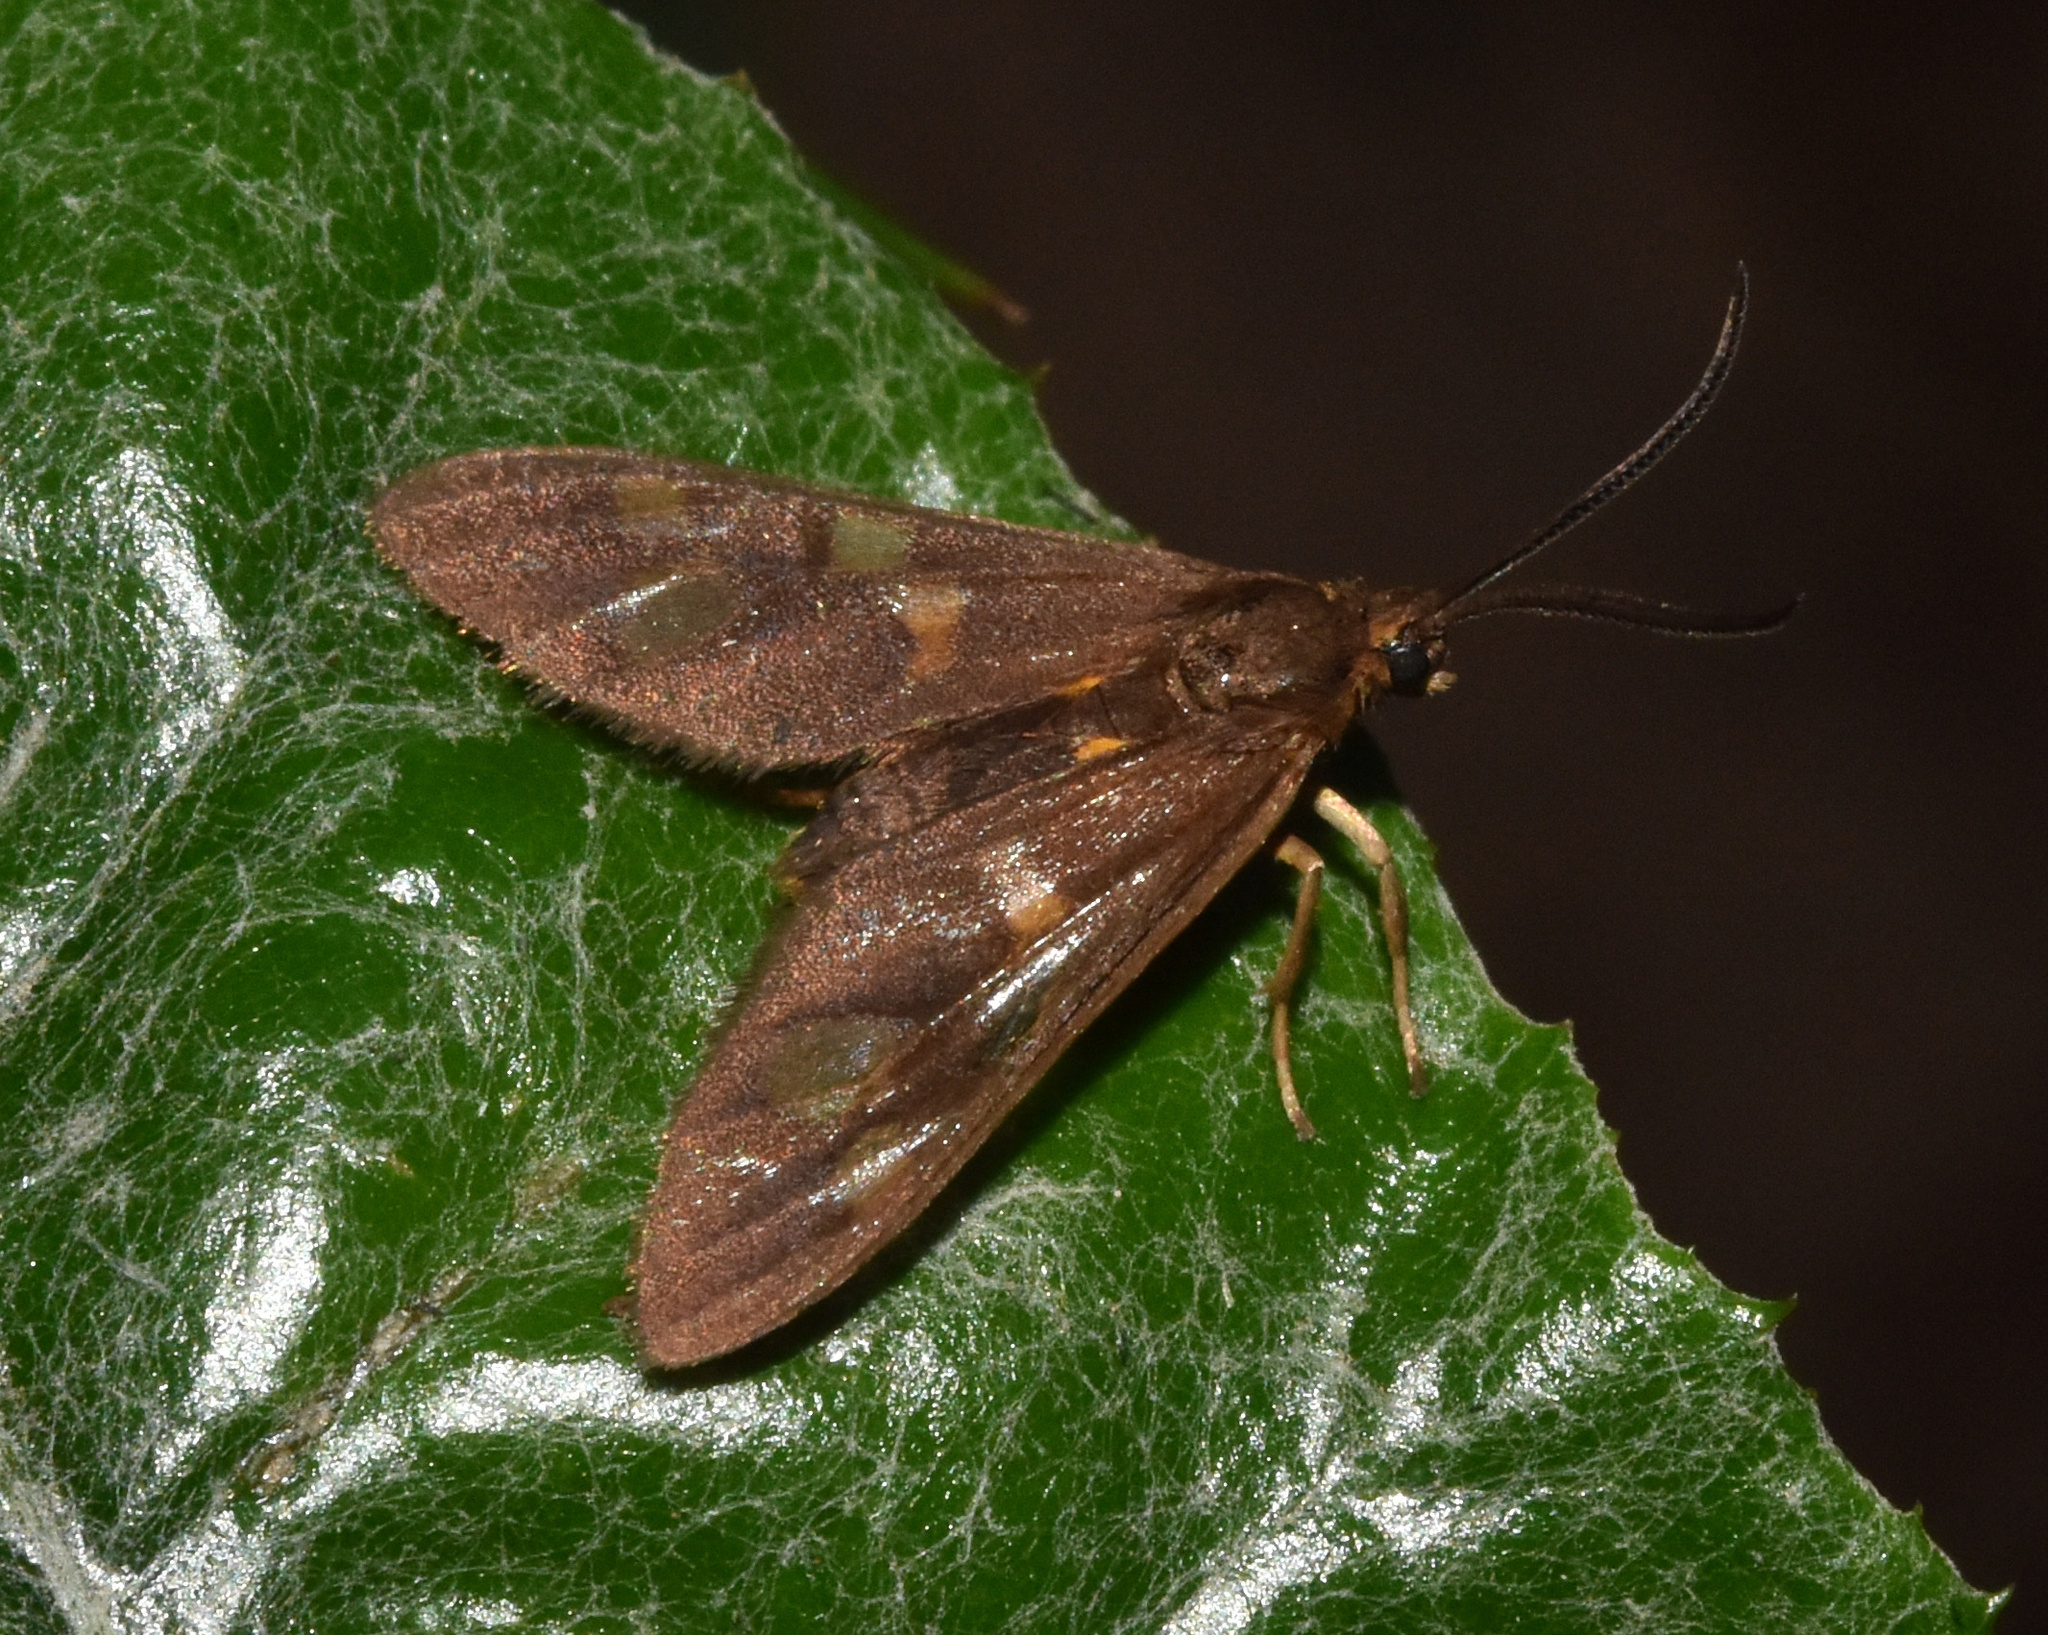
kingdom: Animalia
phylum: Arthropoda
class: Insecta
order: Lepidoptera
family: Erebidae
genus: Pseudonaclia
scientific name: Pseudonaclia puella
